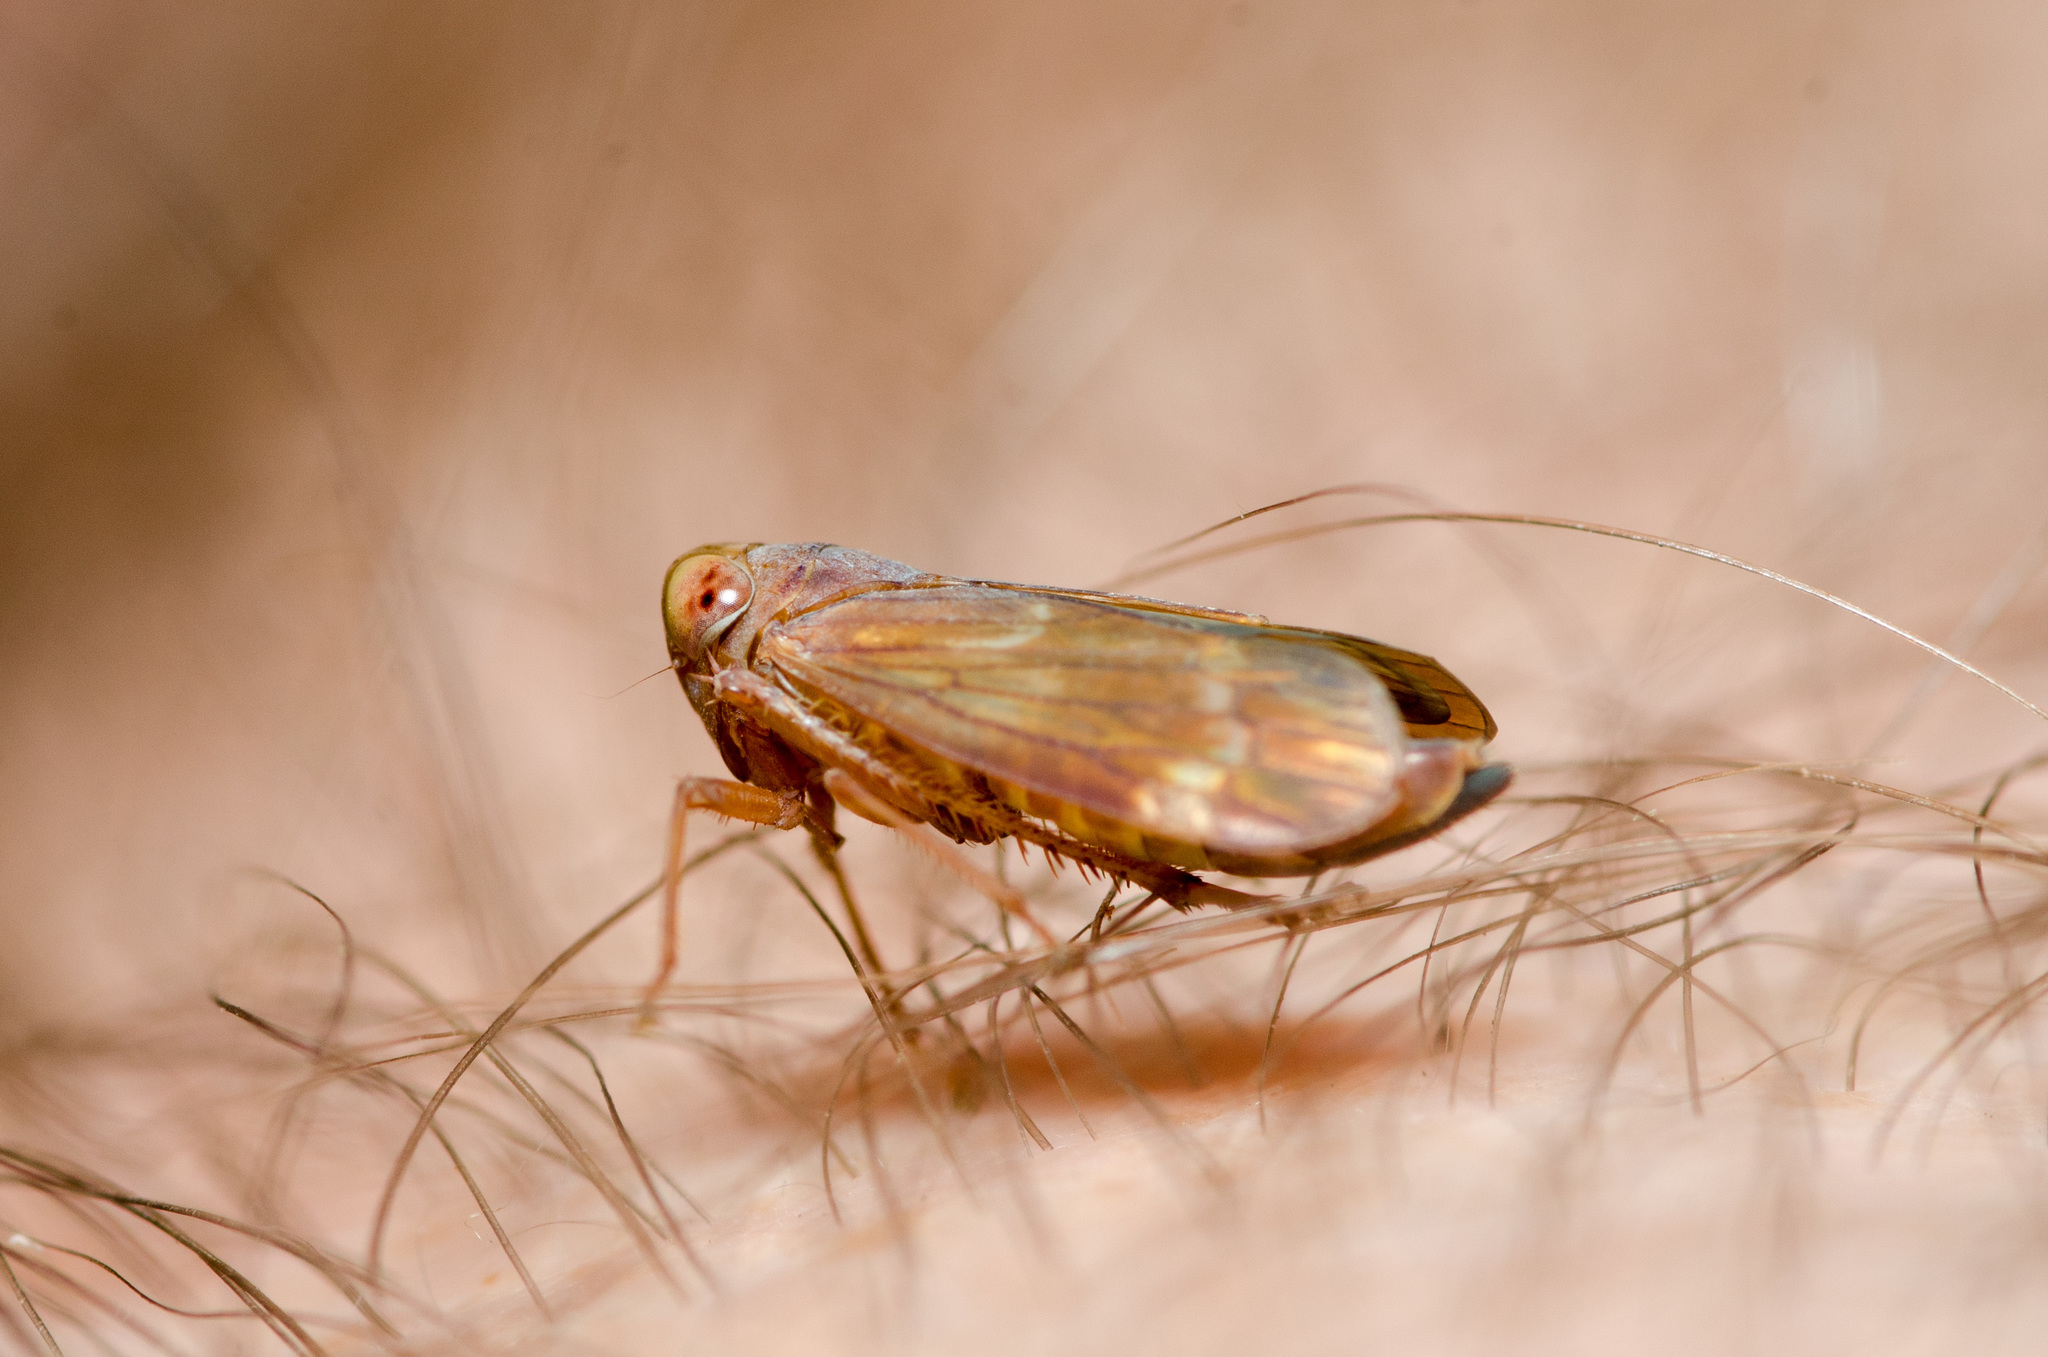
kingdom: Animalia
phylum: Arthropoda
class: Insecta
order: Hemiptera
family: Cicadellidae
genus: Jikradia
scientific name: Jikradia olitoria
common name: Coppery leafhopper
